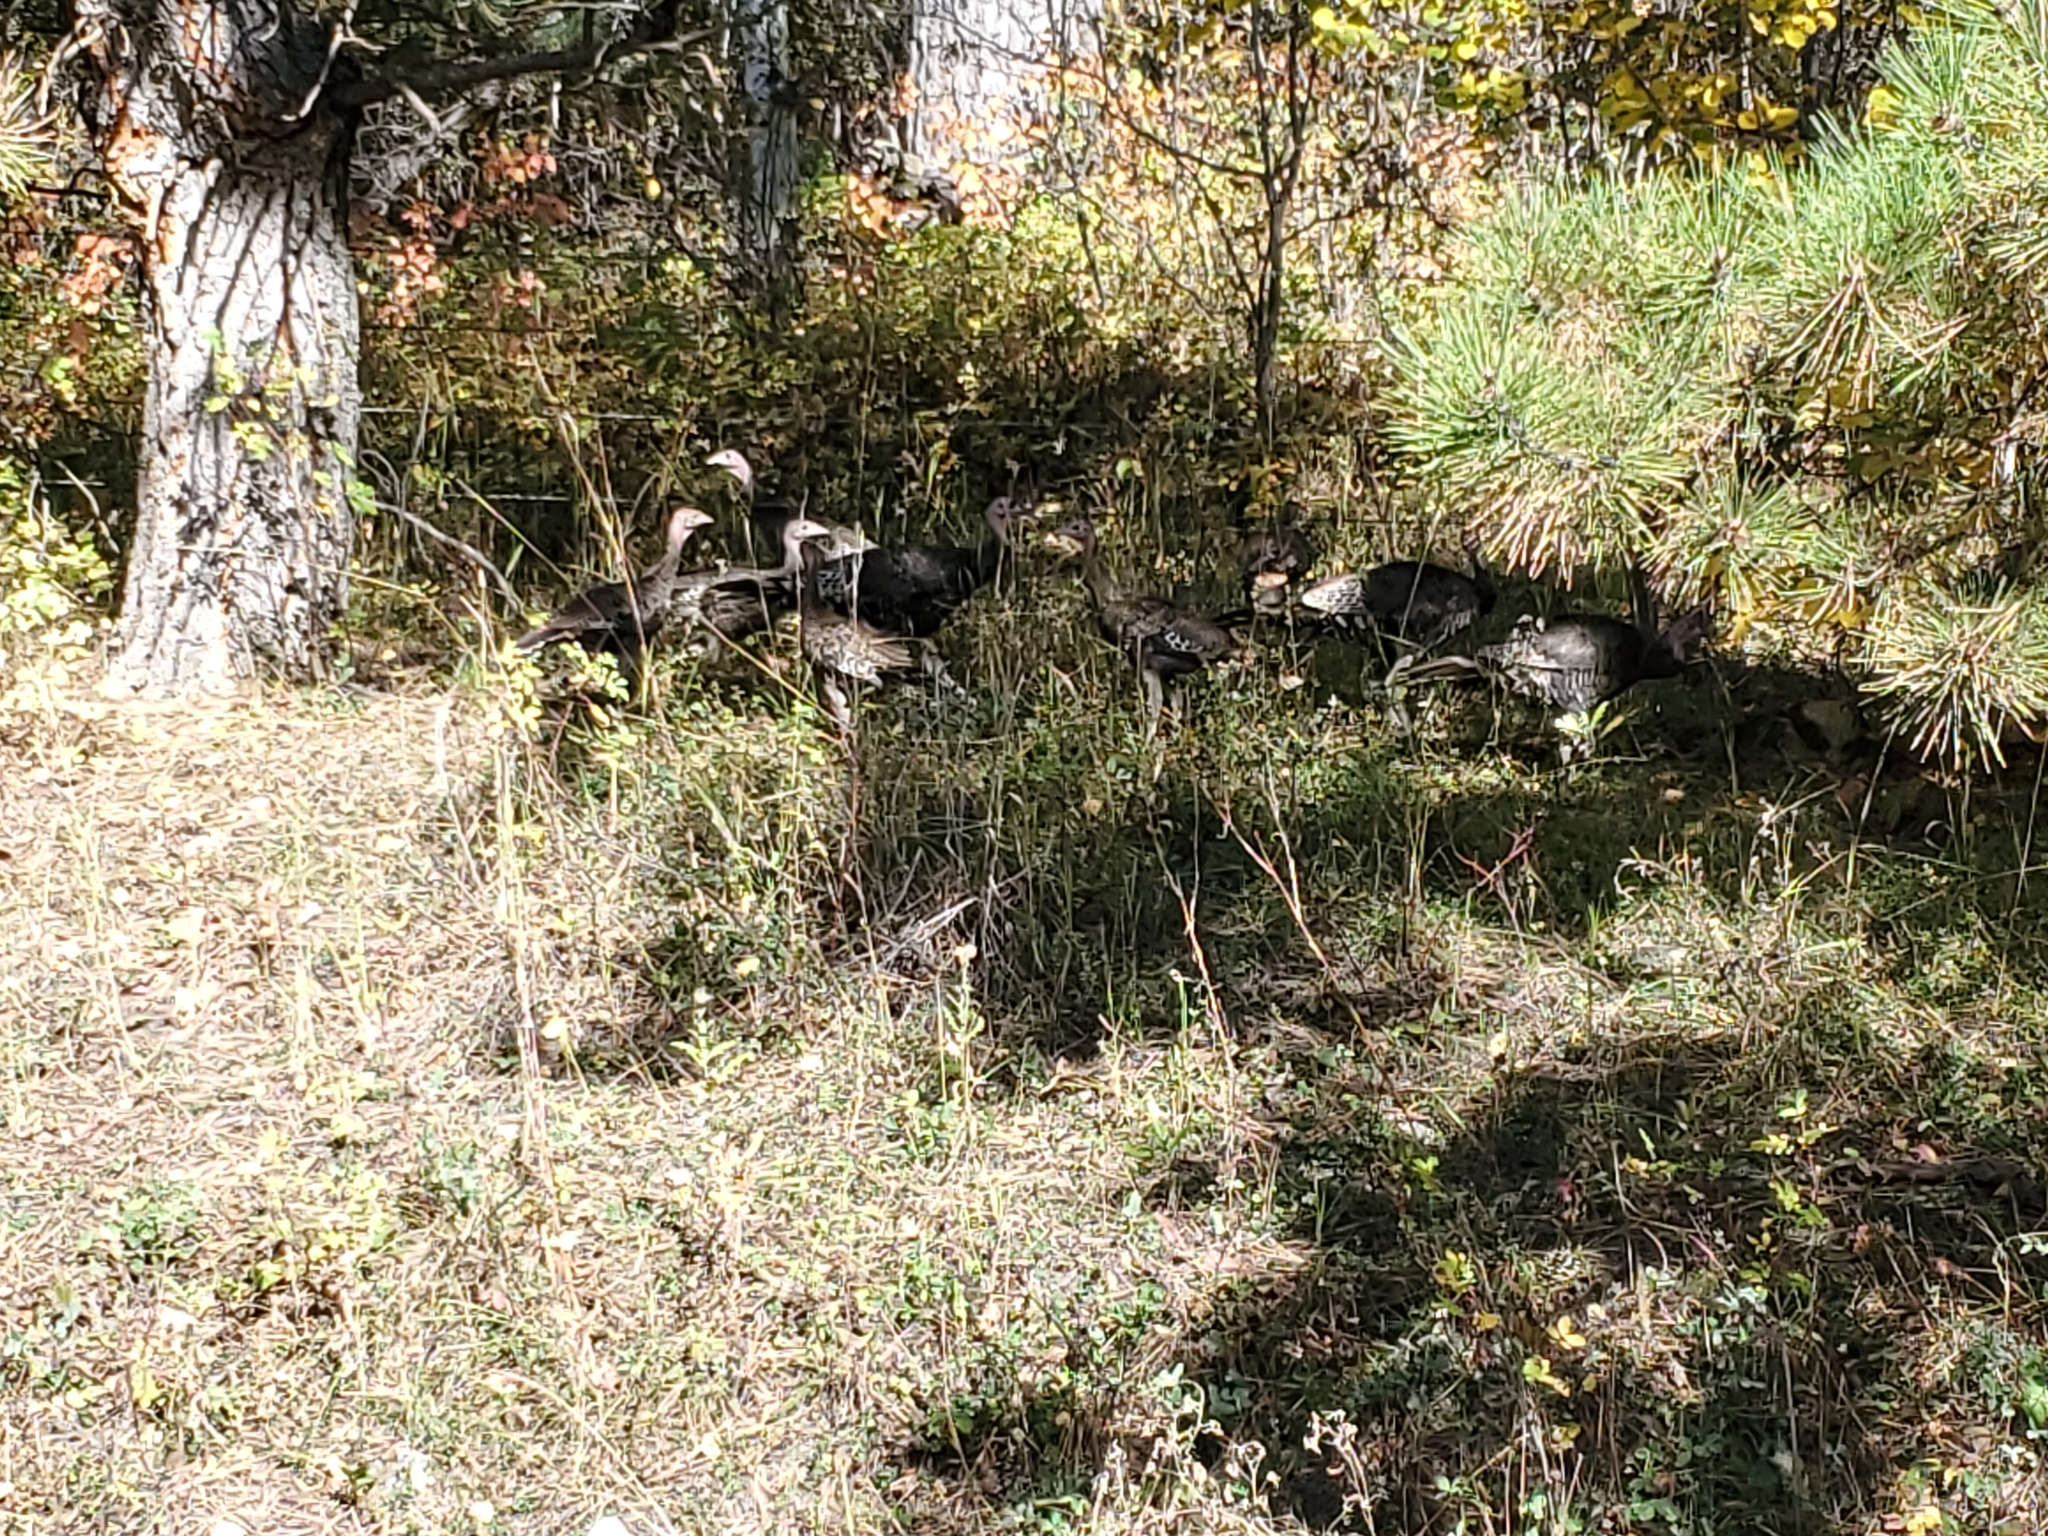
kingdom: Animalia
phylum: Chordata
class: Aves
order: Galliformes
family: Phasianidae
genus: Meleagris
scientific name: Meleagris gallopavo
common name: Wild turkey
